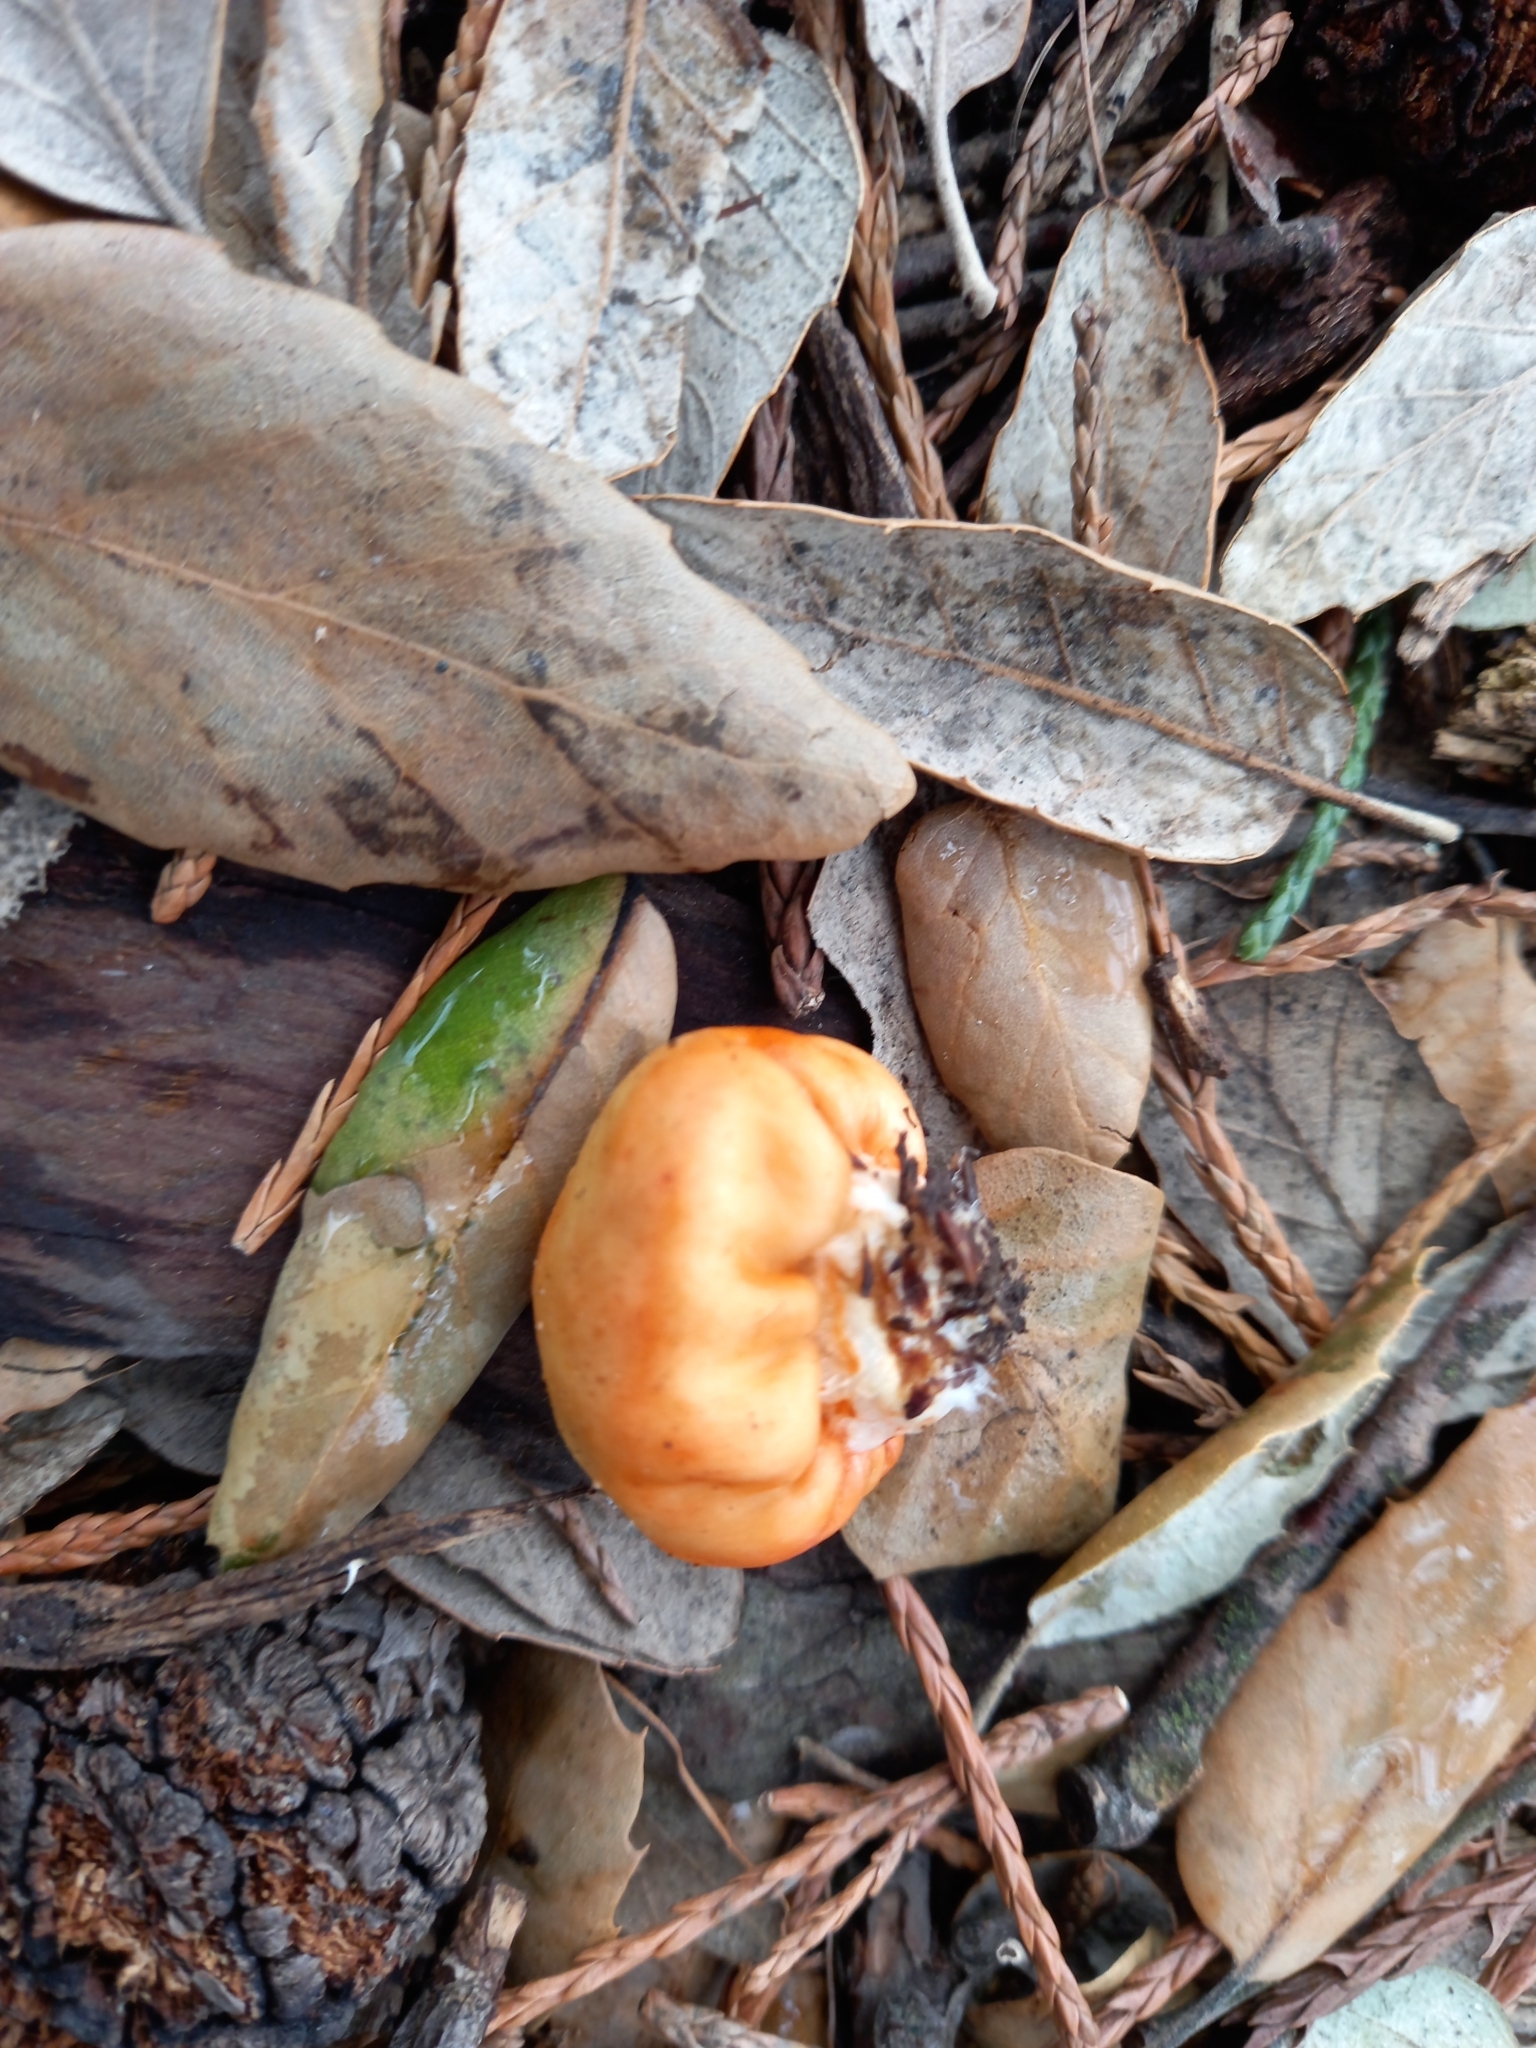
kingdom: Fungi
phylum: Basidiomycota
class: Agaricomycetes
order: Agaricales
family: Strophariaceae
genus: Leratiomyces
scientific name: Leratiomyces erythrocephalus
